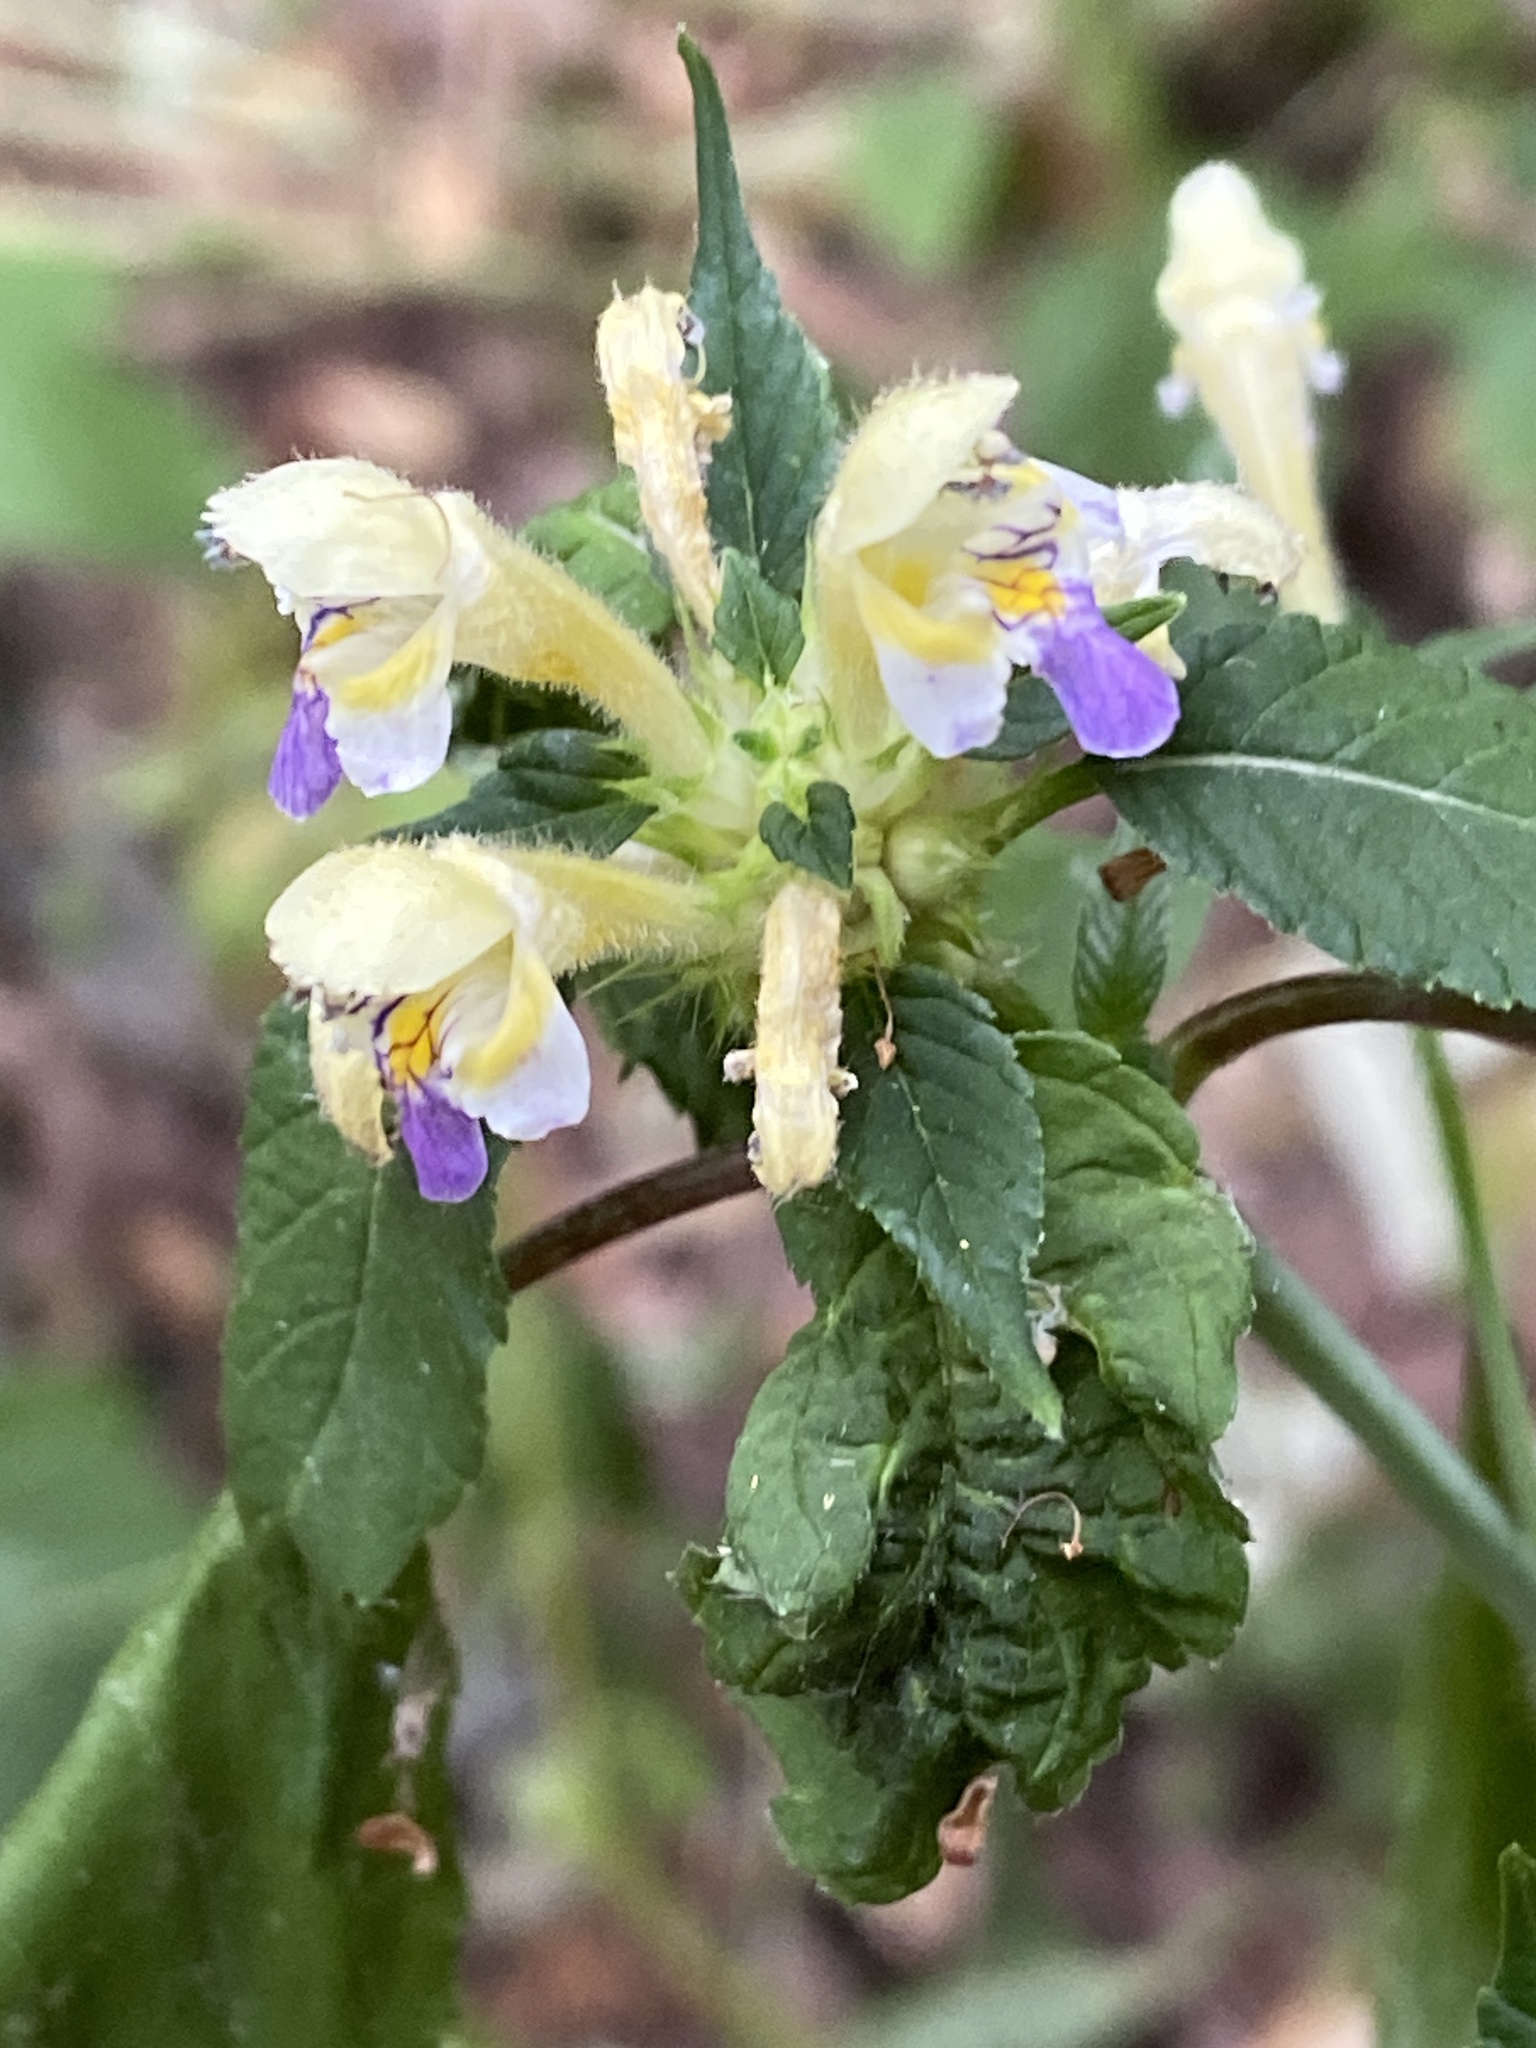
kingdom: Plantae
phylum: Tracheophyta
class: Magnoliopsida
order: Lamiales
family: Lamiaceae
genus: Galeopsis
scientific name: Galeopsis speciosa
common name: Large-flowered hemp-nettle
